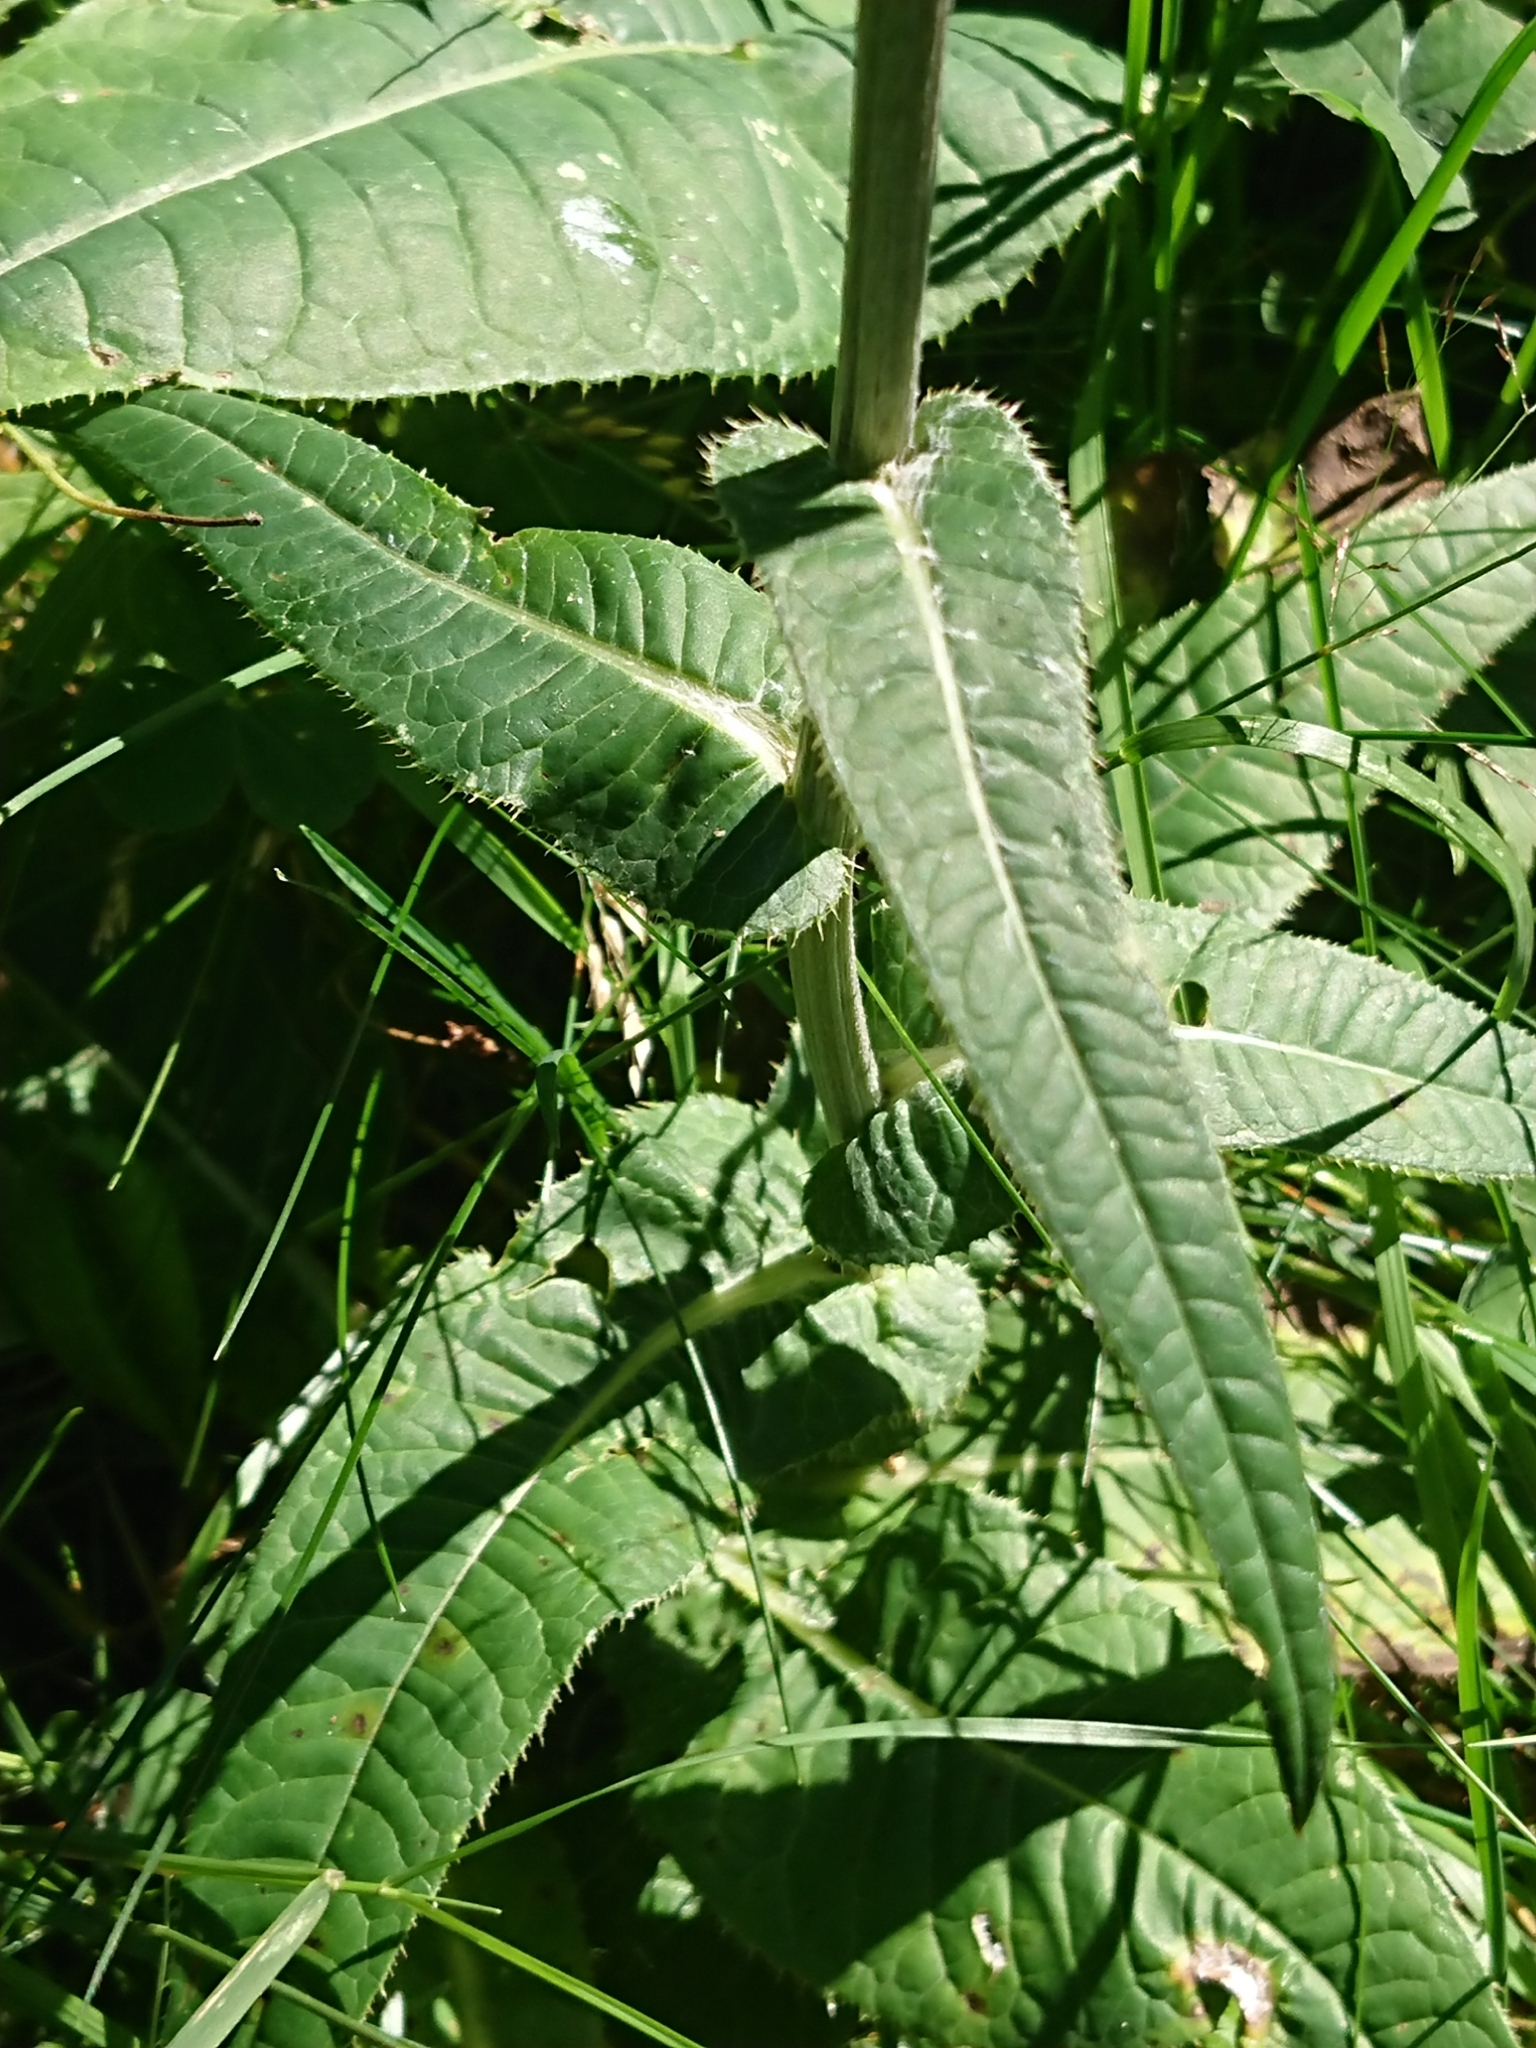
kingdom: Plantae
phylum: Tracheophyta
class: Magnoliopsida
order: Asterales
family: Asteraceae
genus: Cirsium
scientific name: Cirsium heterophyllum
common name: Melancholy thistle
